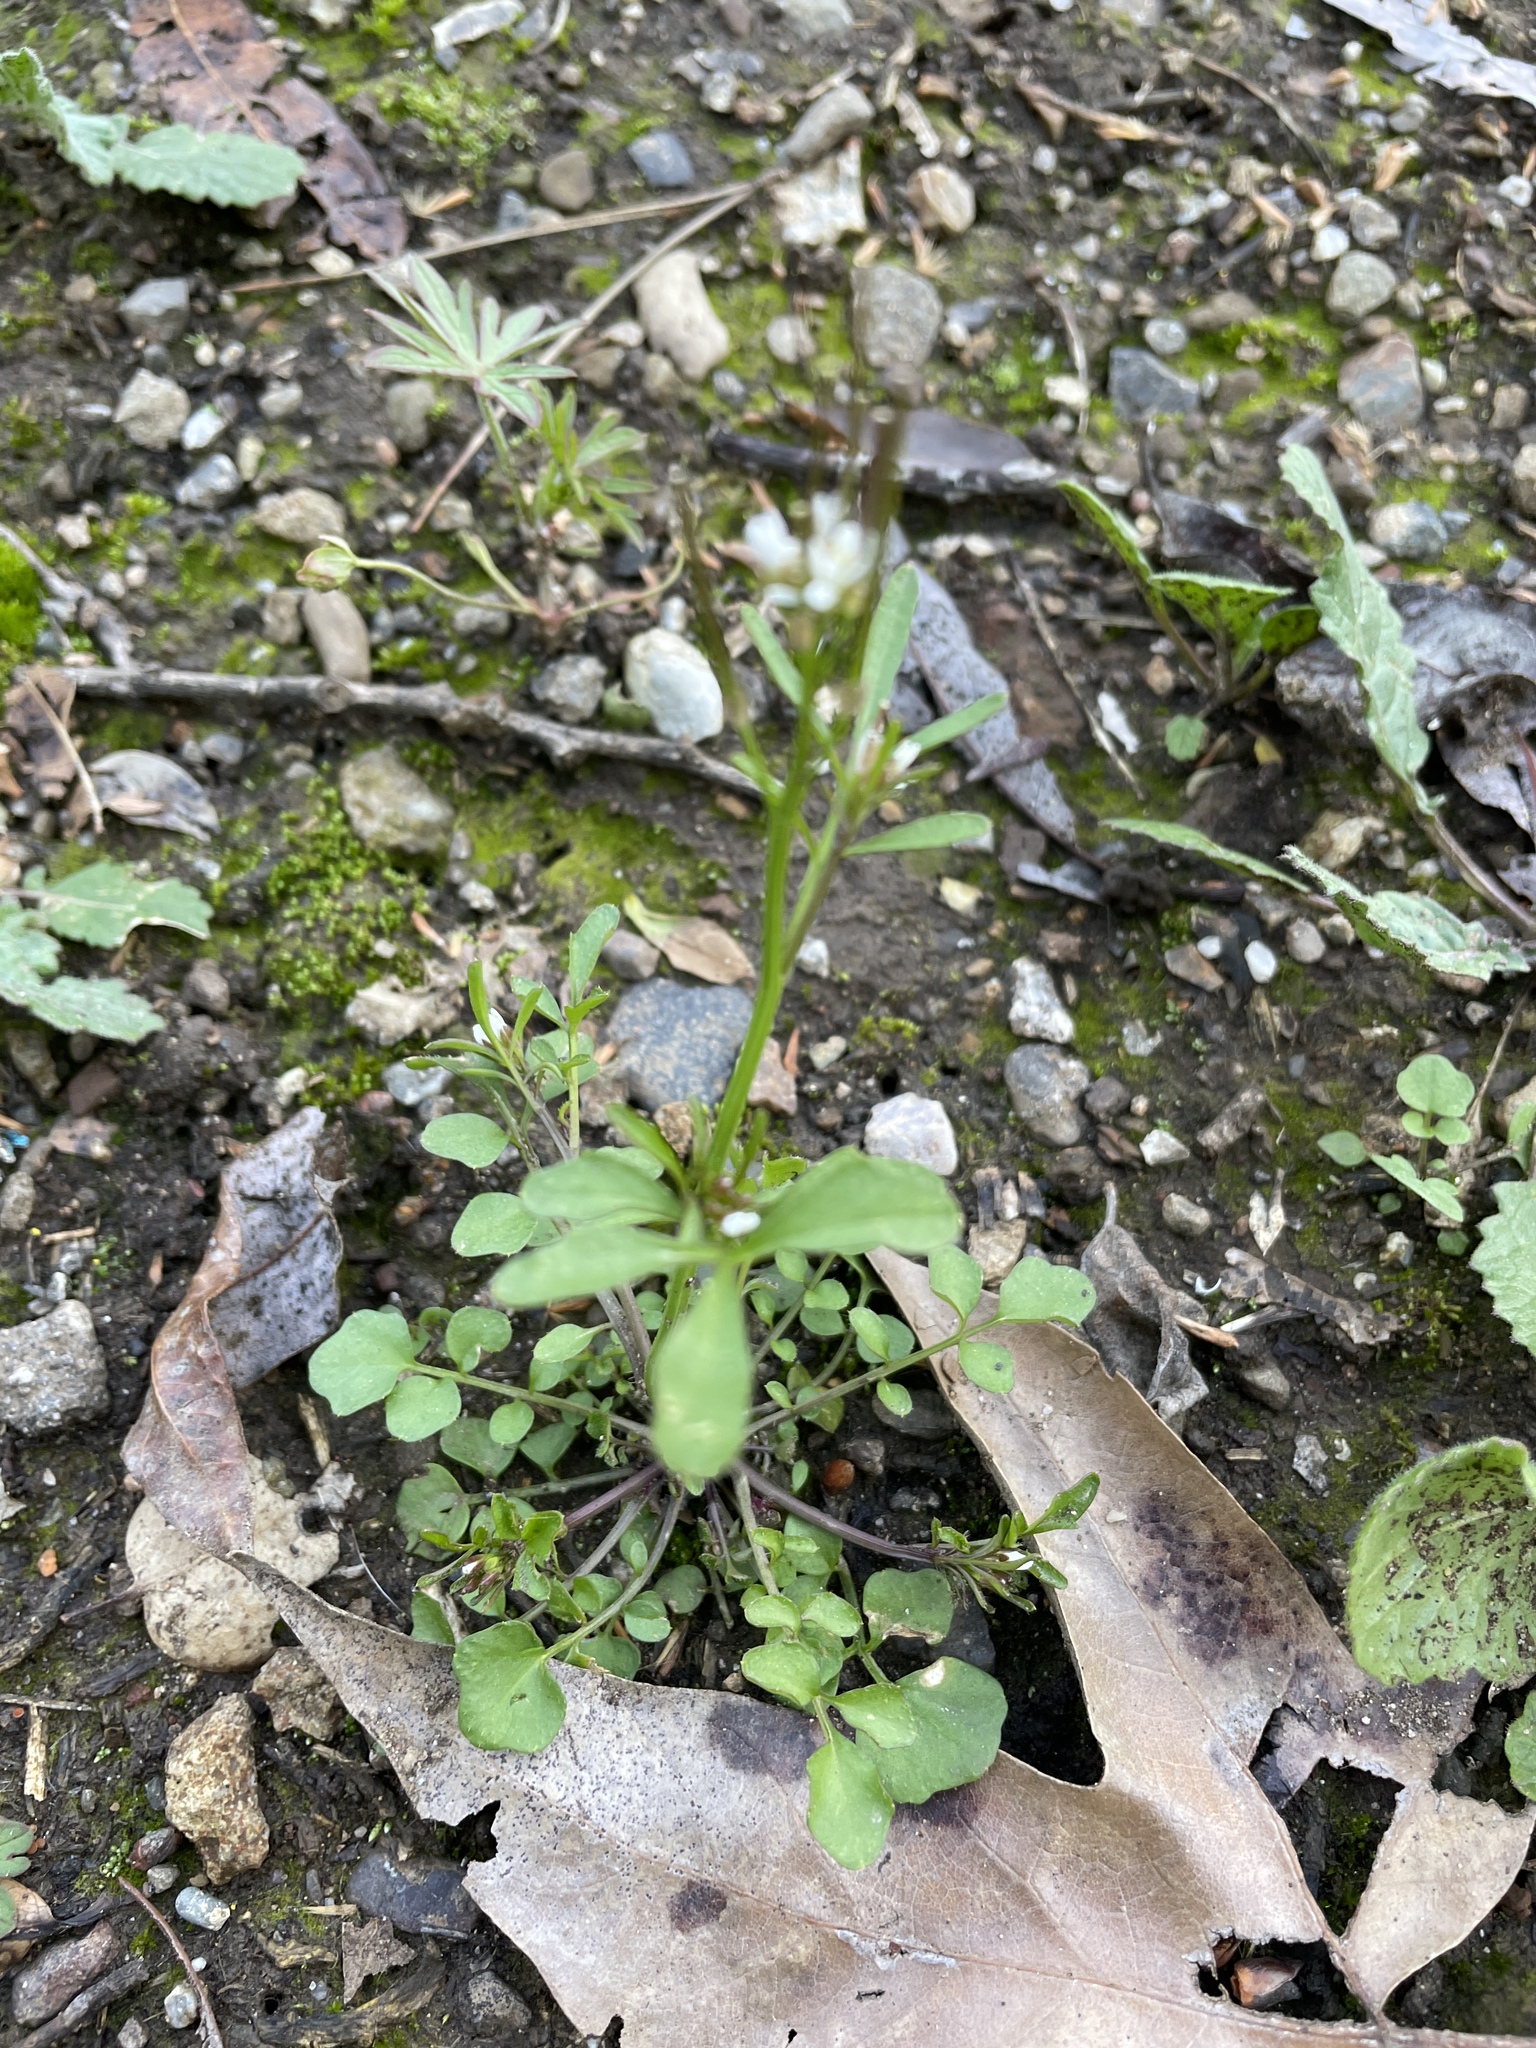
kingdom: Plantae
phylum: Tracheophyta
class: Magnoliopsida
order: Brassicales
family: Brassicaceae
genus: Cardamine
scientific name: Cardamine hirsuta
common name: Hairy bittercress
